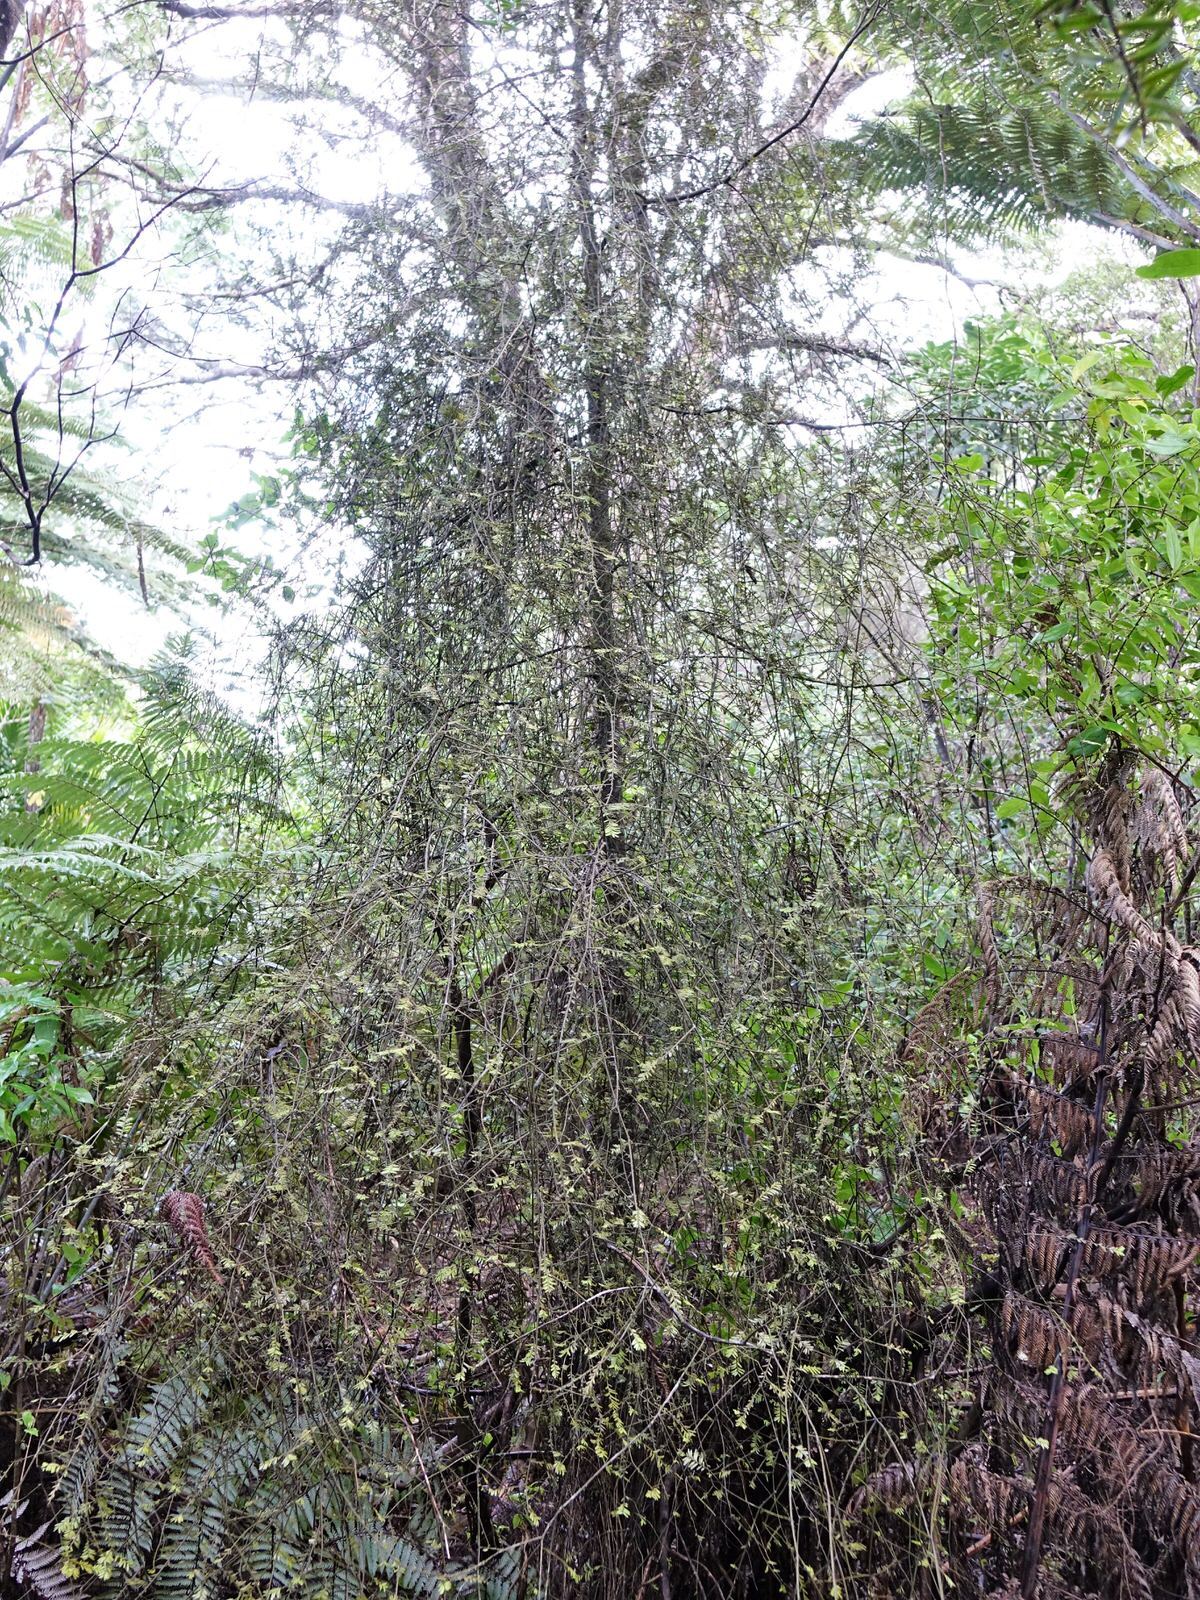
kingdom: Plantae
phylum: Tracheophyta
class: Pinopsida
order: Pinales
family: Podocarpaceae
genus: Prumnopitys
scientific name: Prumnopitys taxifolia
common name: Matai
